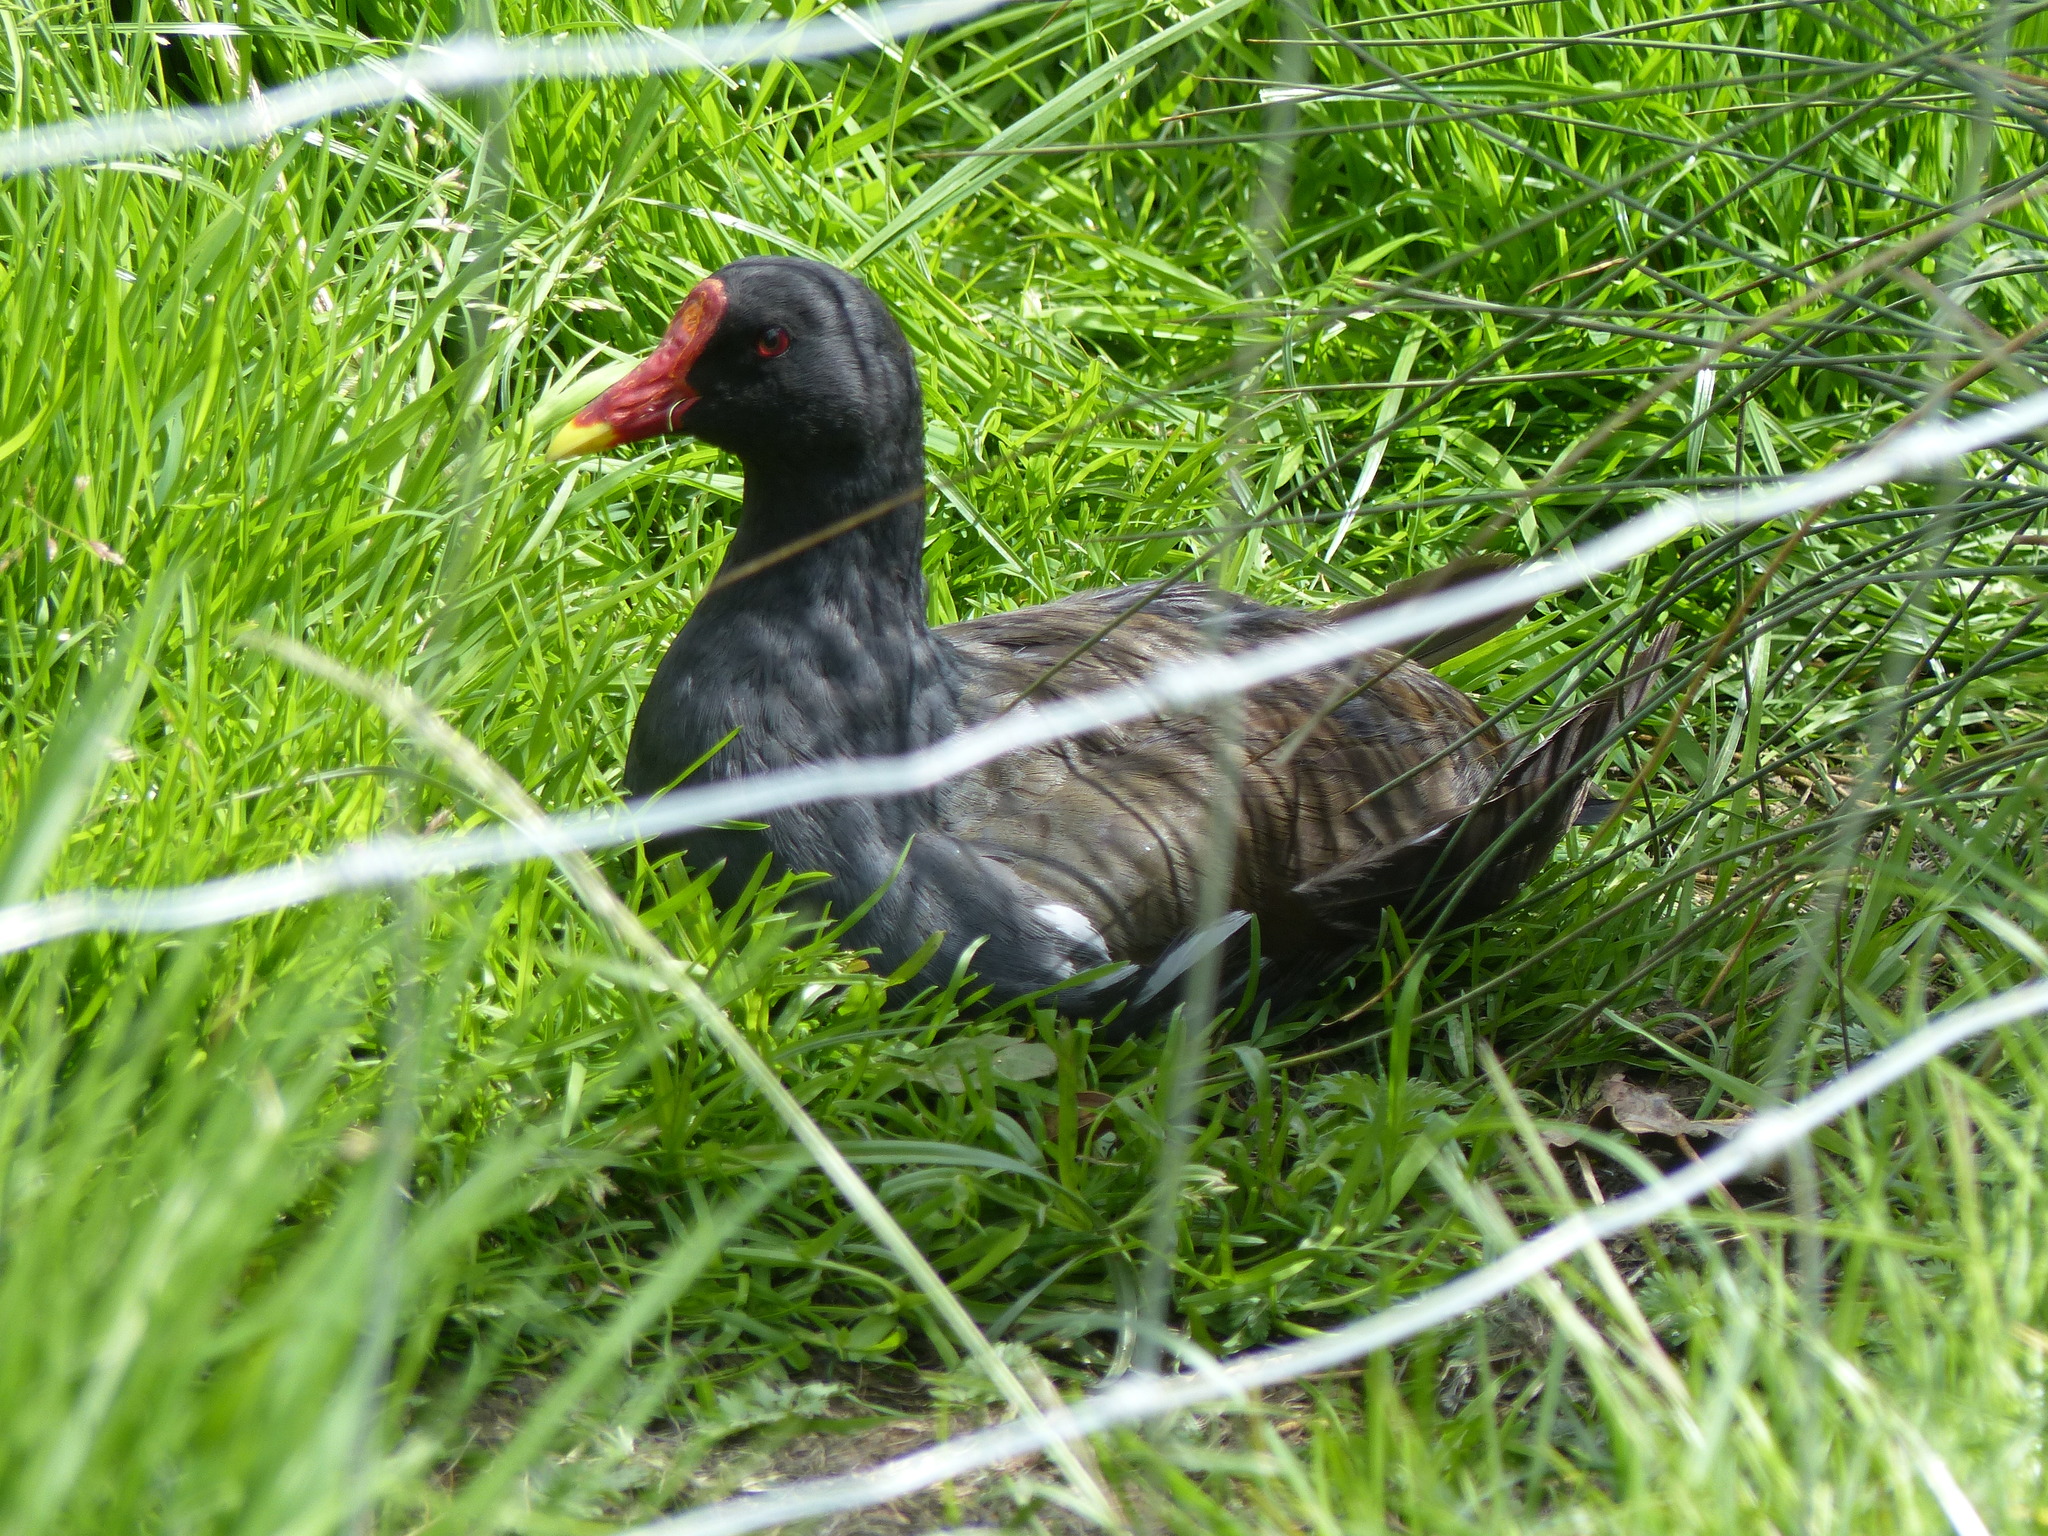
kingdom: Animalia
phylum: Chordata
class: Aves
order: Gruiformes
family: Rallidae
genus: Gallinula
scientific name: Gallinula chloropus
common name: Common moorhen
